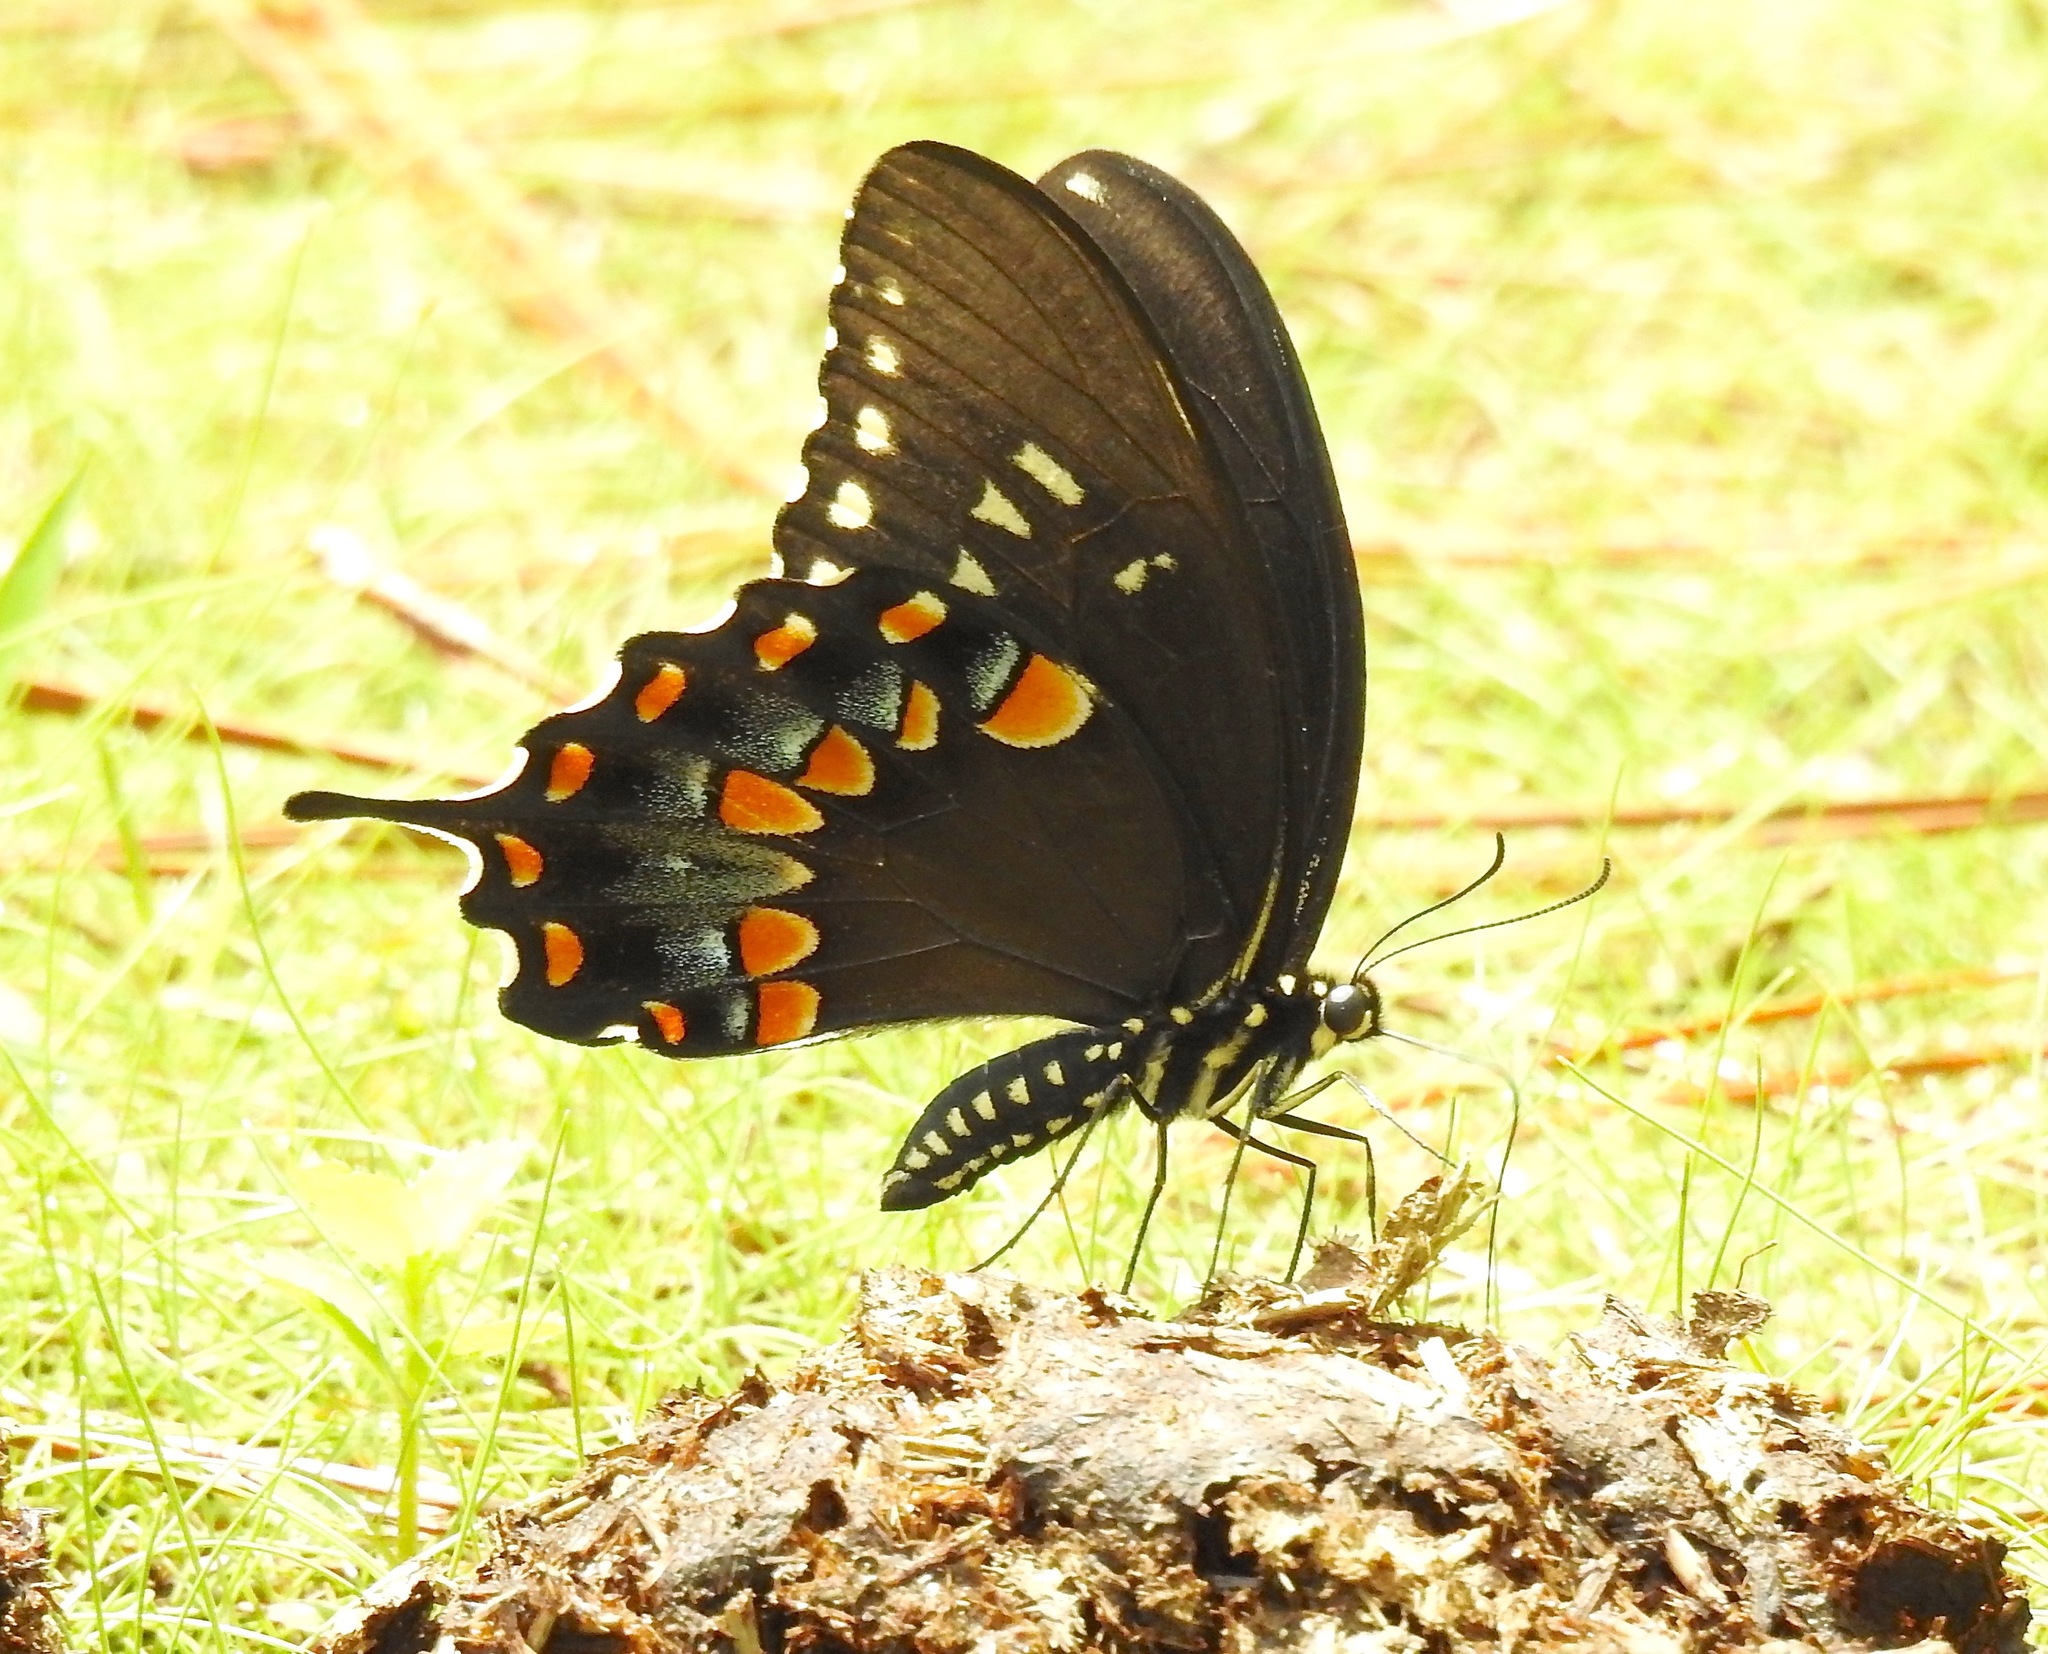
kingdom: Animalia
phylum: Arthropoda
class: Insecta
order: Lepidoptera
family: Papilionidae
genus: Papilio
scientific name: Papilio troilus
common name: Spicebush swallowtail
